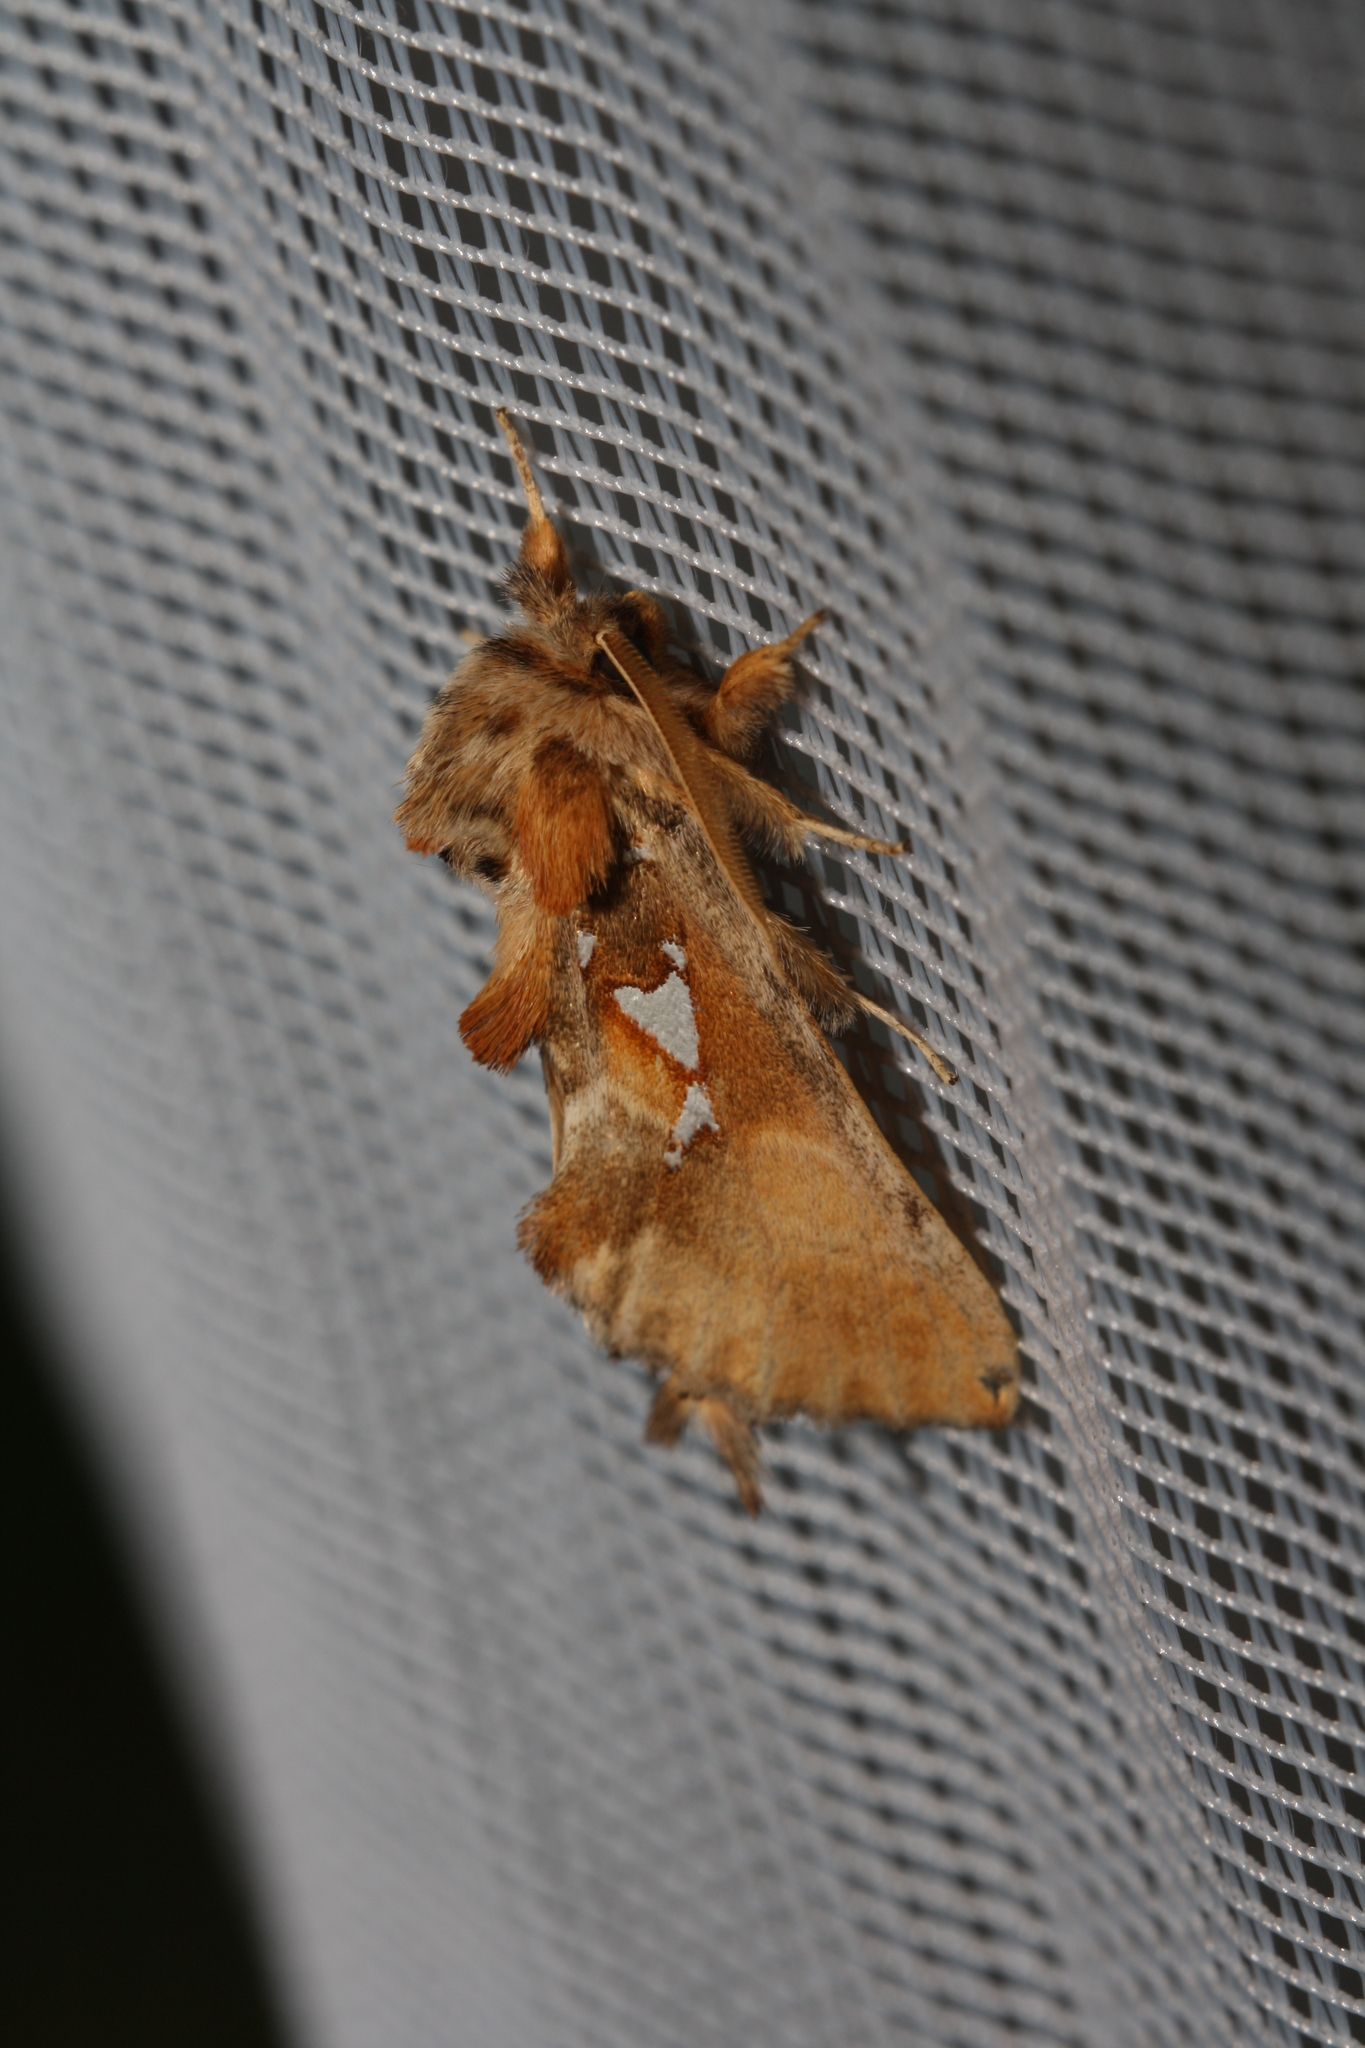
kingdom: Animalia
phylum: Arthropoda
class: Insecta
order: Lepidoptera
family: Notodontidae
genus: Spatalia
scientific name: Spatalia argentina
